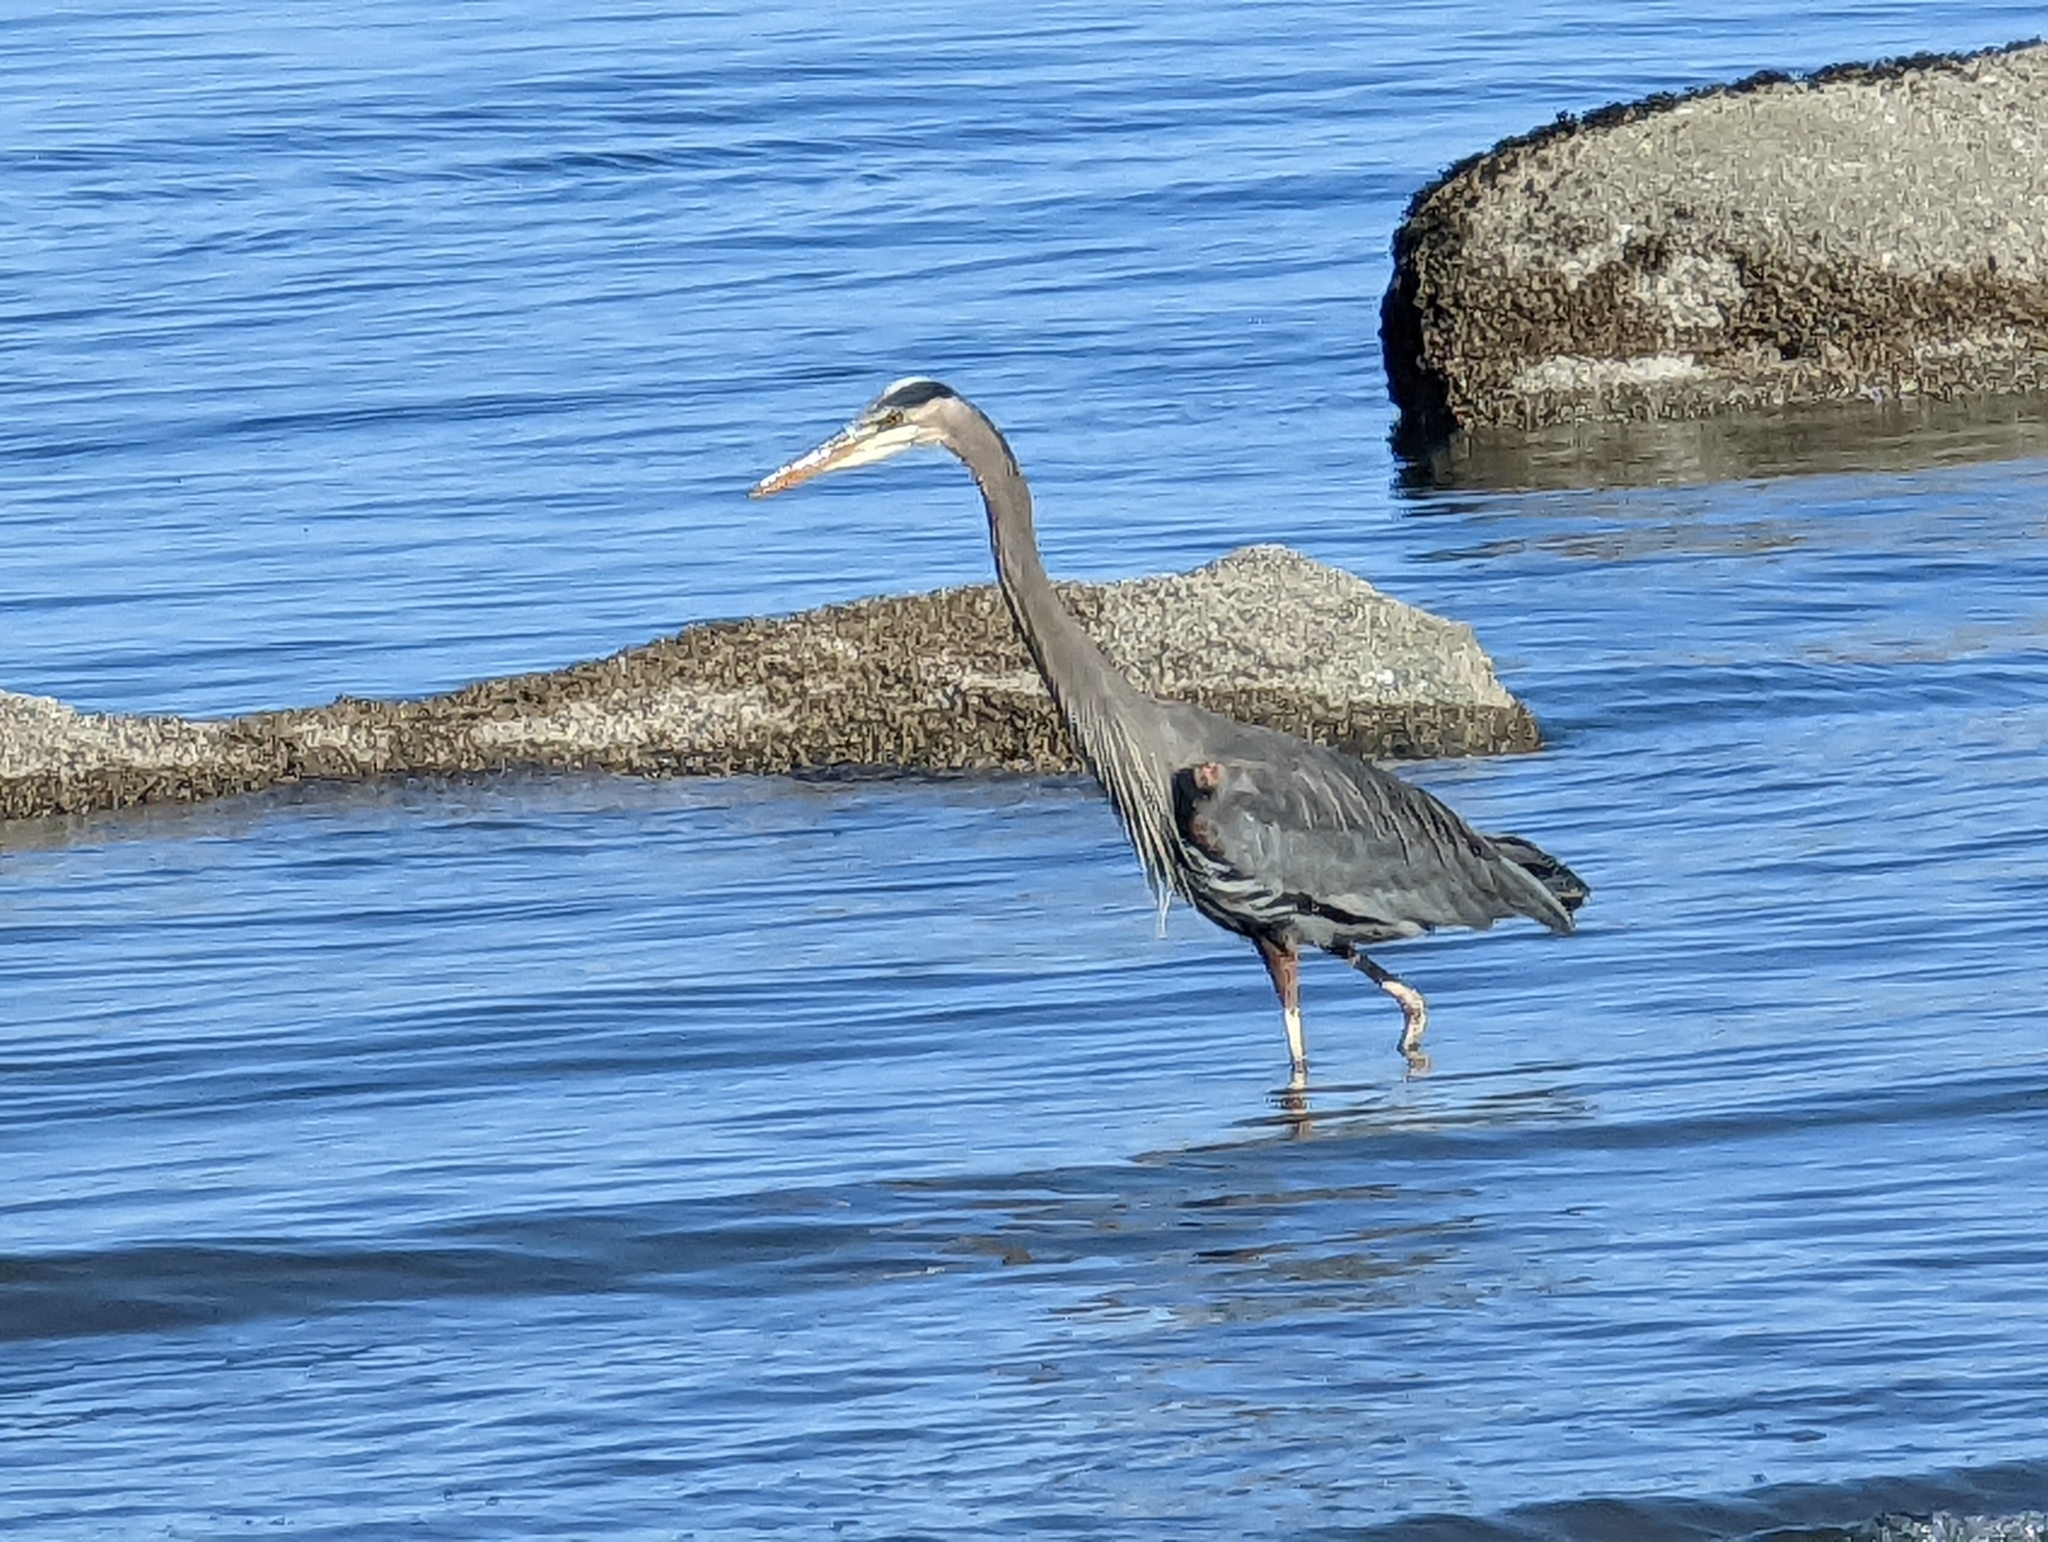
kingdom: Animalia
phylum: Chordata
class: Aves
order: Pelecaniformes
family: Ardeidae
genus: Ardea
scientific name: Ardea herodias
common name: Great blue heron
